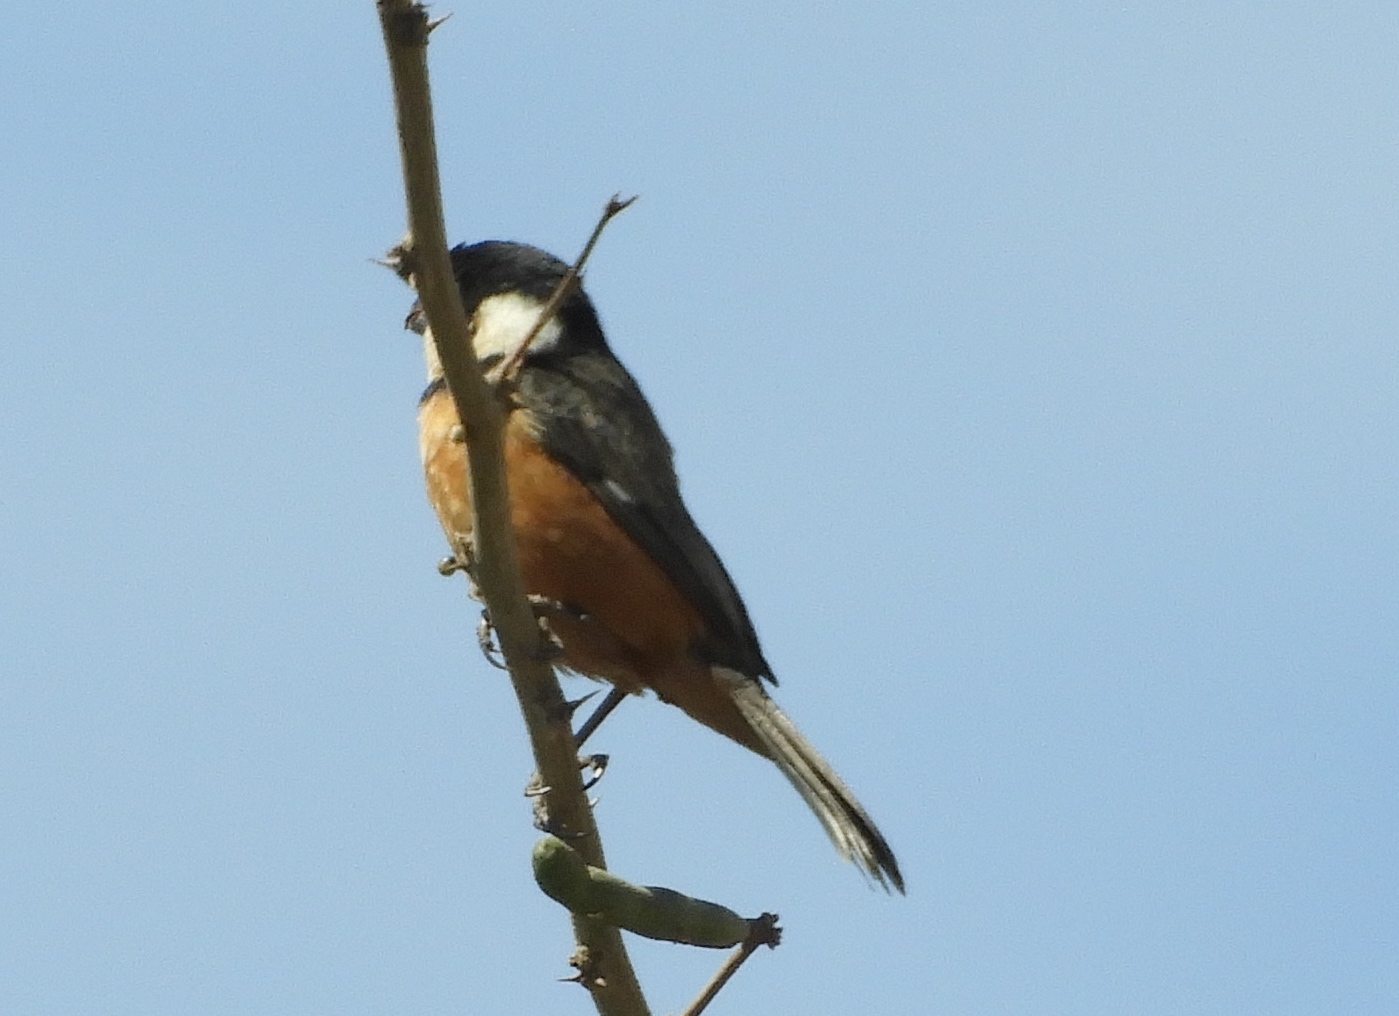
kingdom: Animalia
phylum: Chordata
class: Aves
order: Passeriformes
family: Thraupidae
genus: Sporophila
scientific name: Sporophila torqueola
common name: White-collared seedeater
